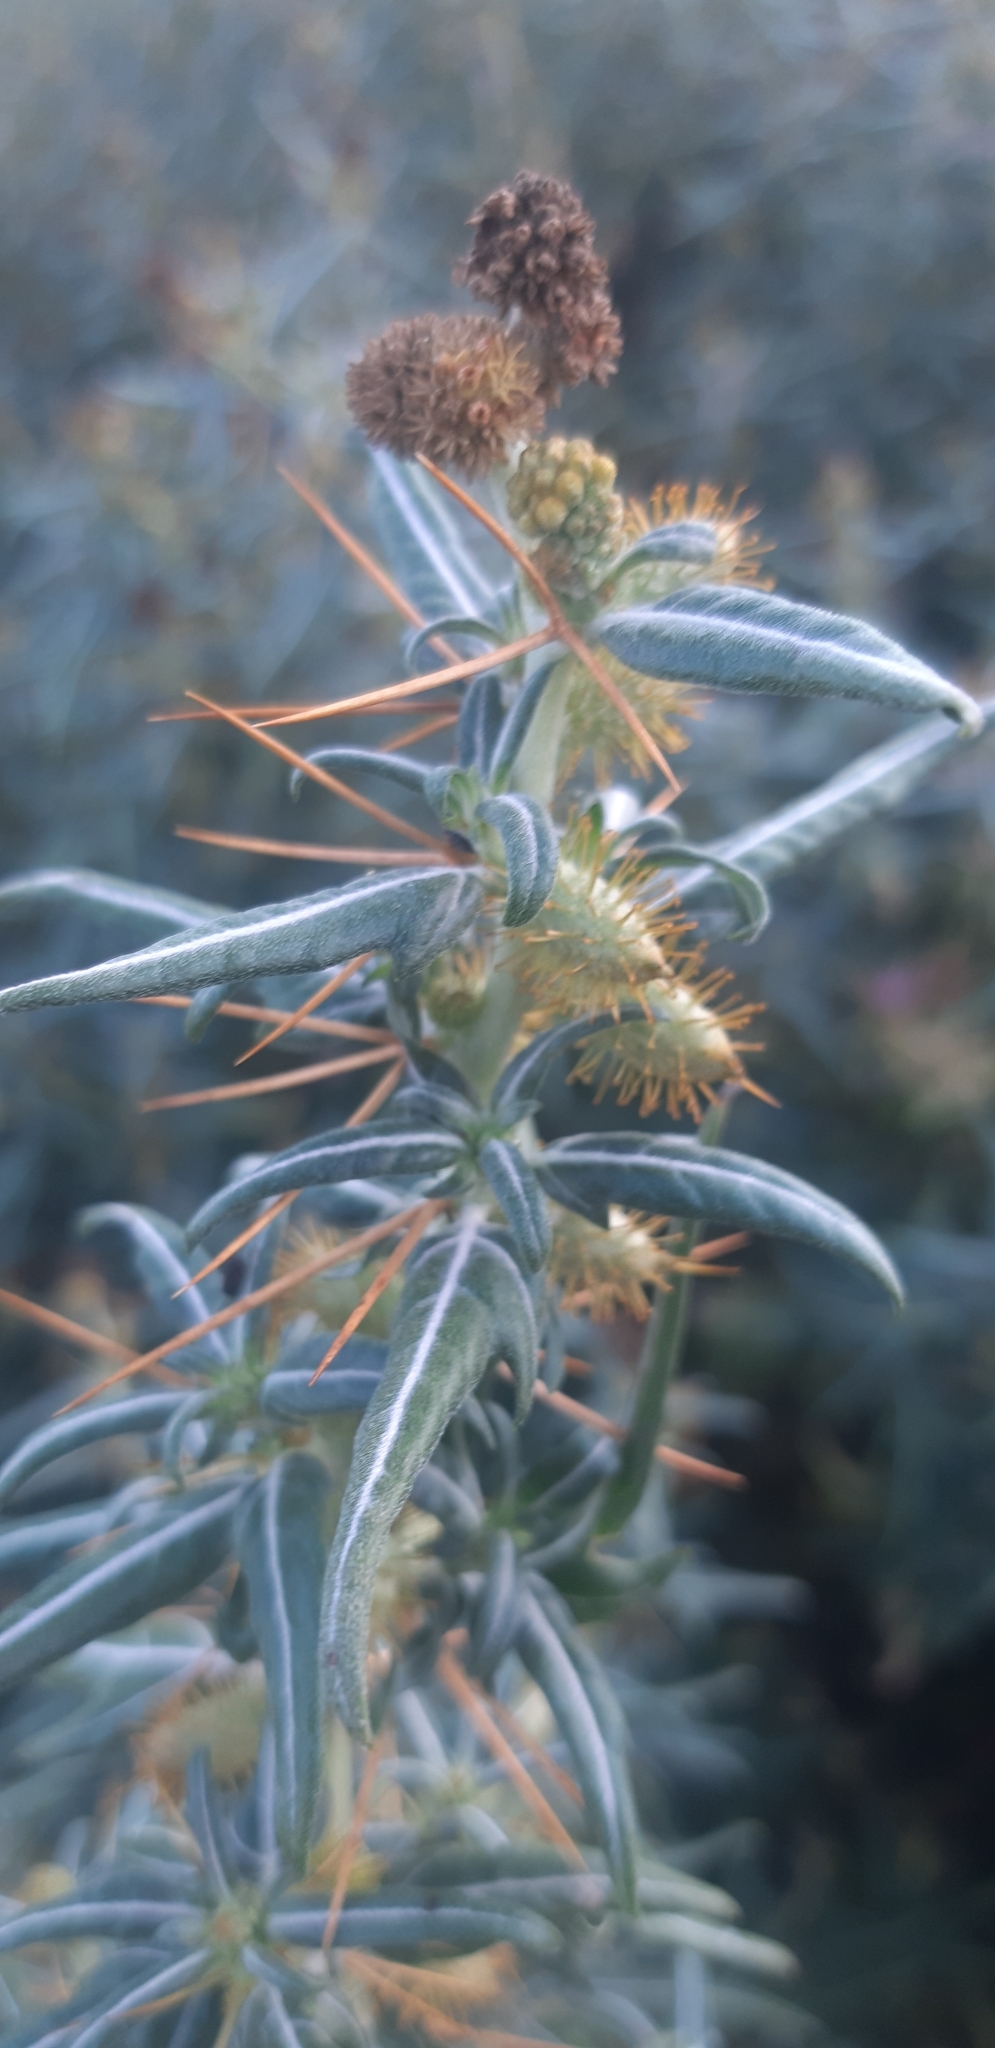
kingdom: Plantae
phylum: Tracheophyta
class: Magnoliopsida
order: Asterales
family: Asteraceae
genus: Xanthium
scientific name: Xanthium spinosum
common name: Spiny cocklebur
